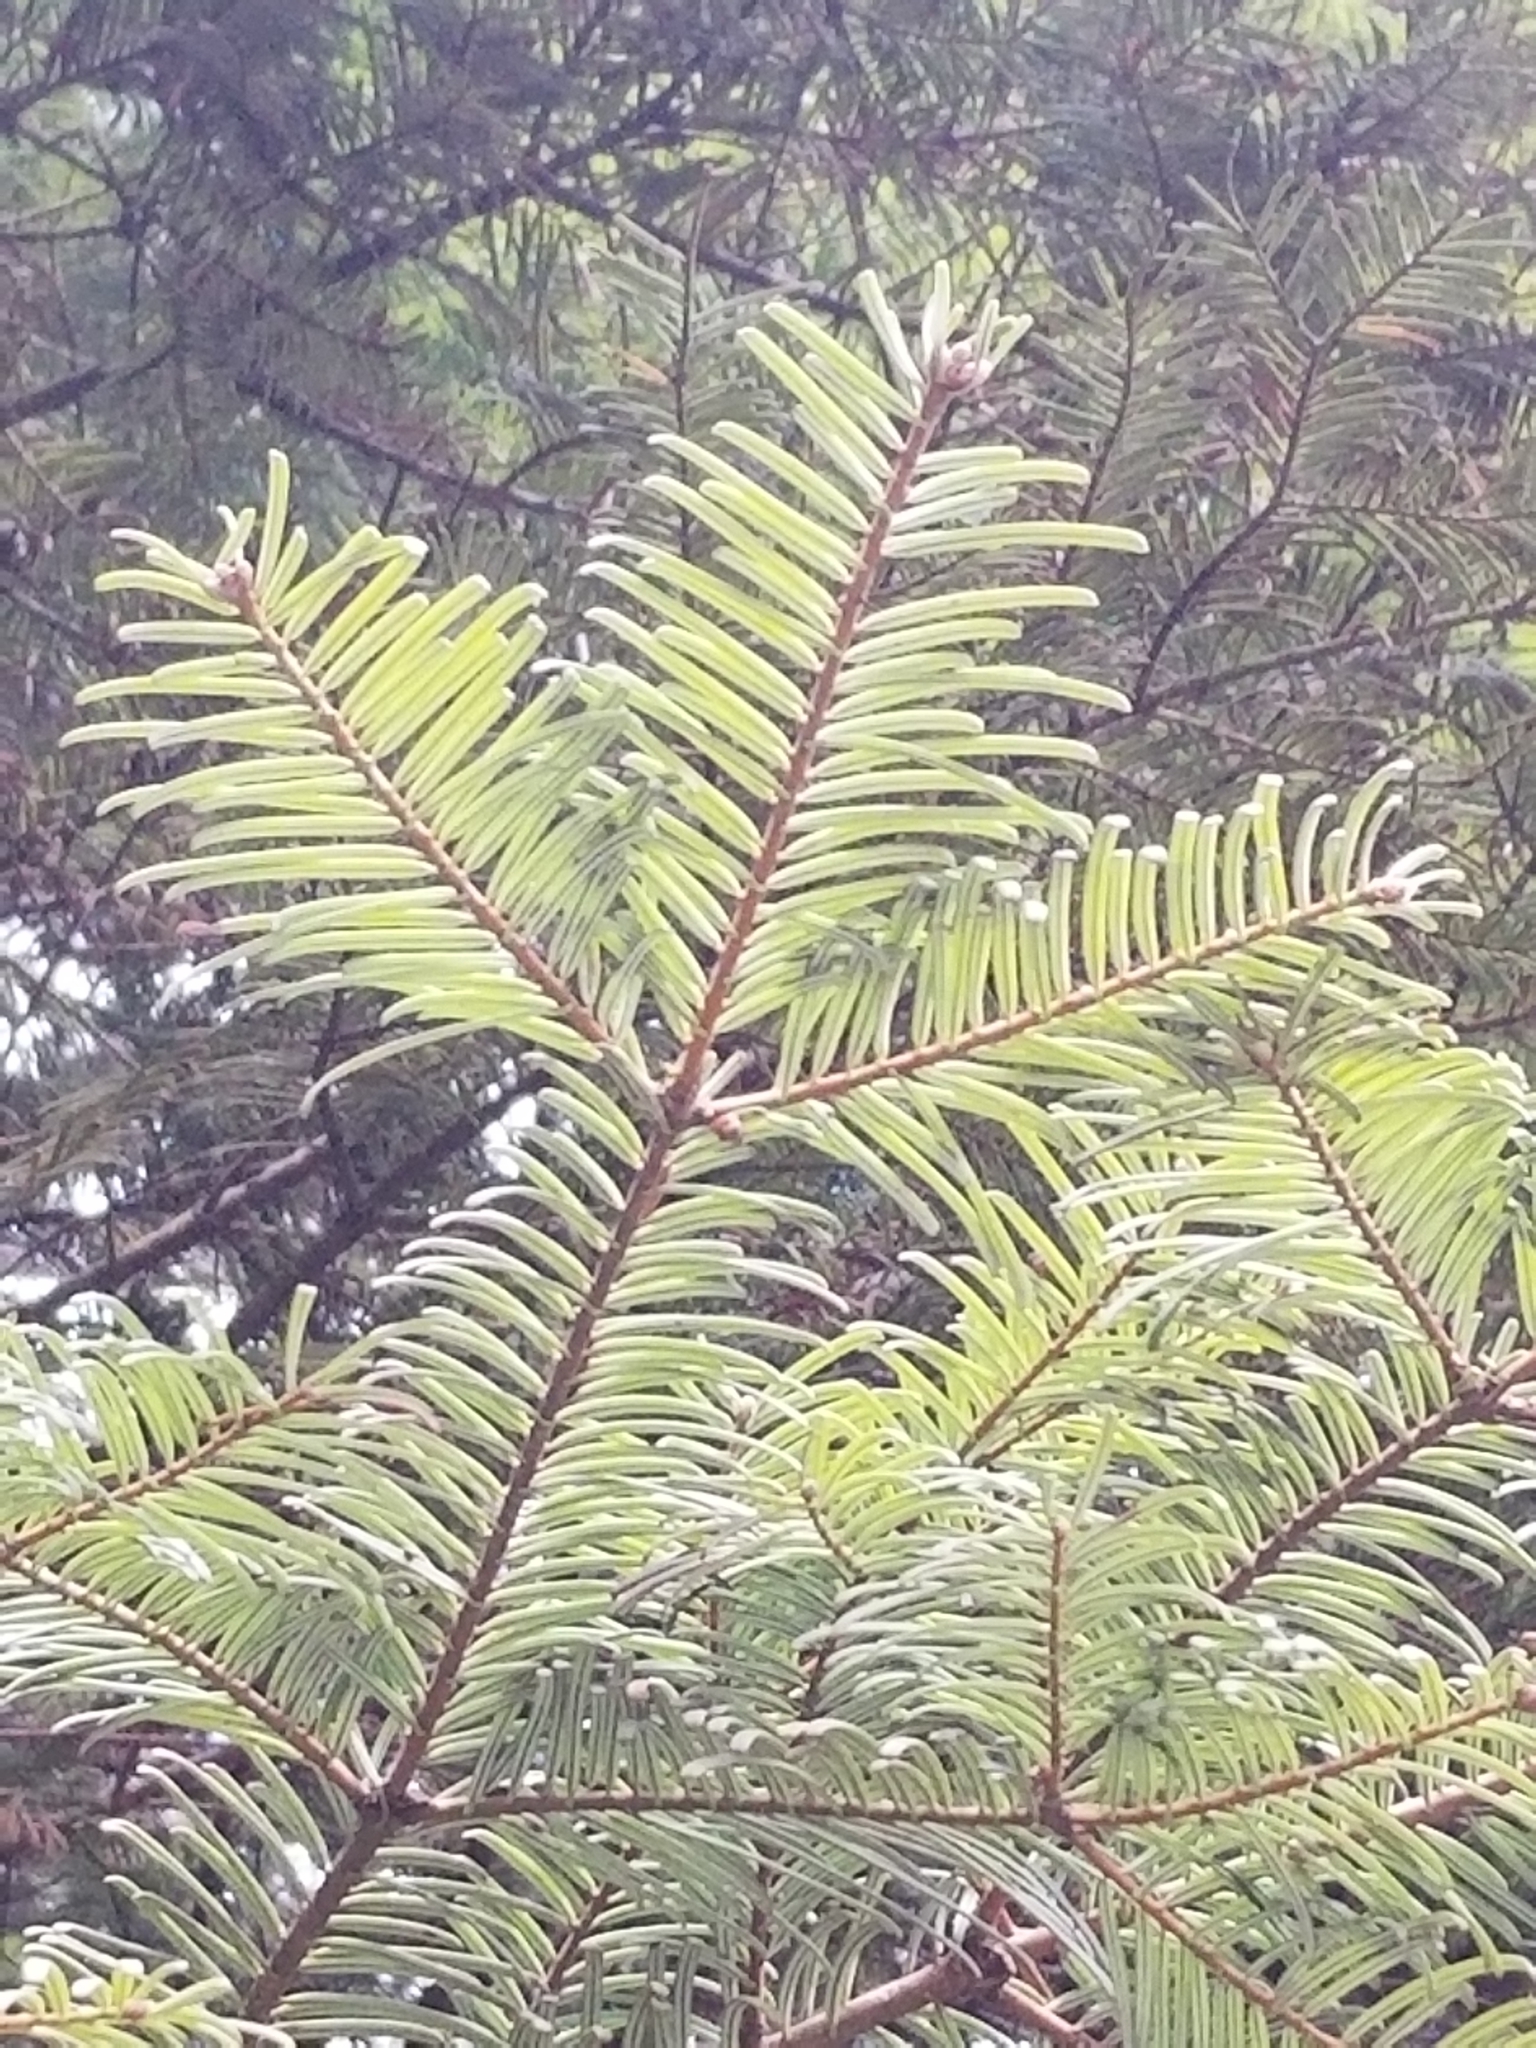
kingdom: Plantae
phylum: Tracheophyta
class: Pinopsida
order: Pinales
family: Pinaceae
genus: Abies
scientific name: Abies grandis
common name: Giant fir
